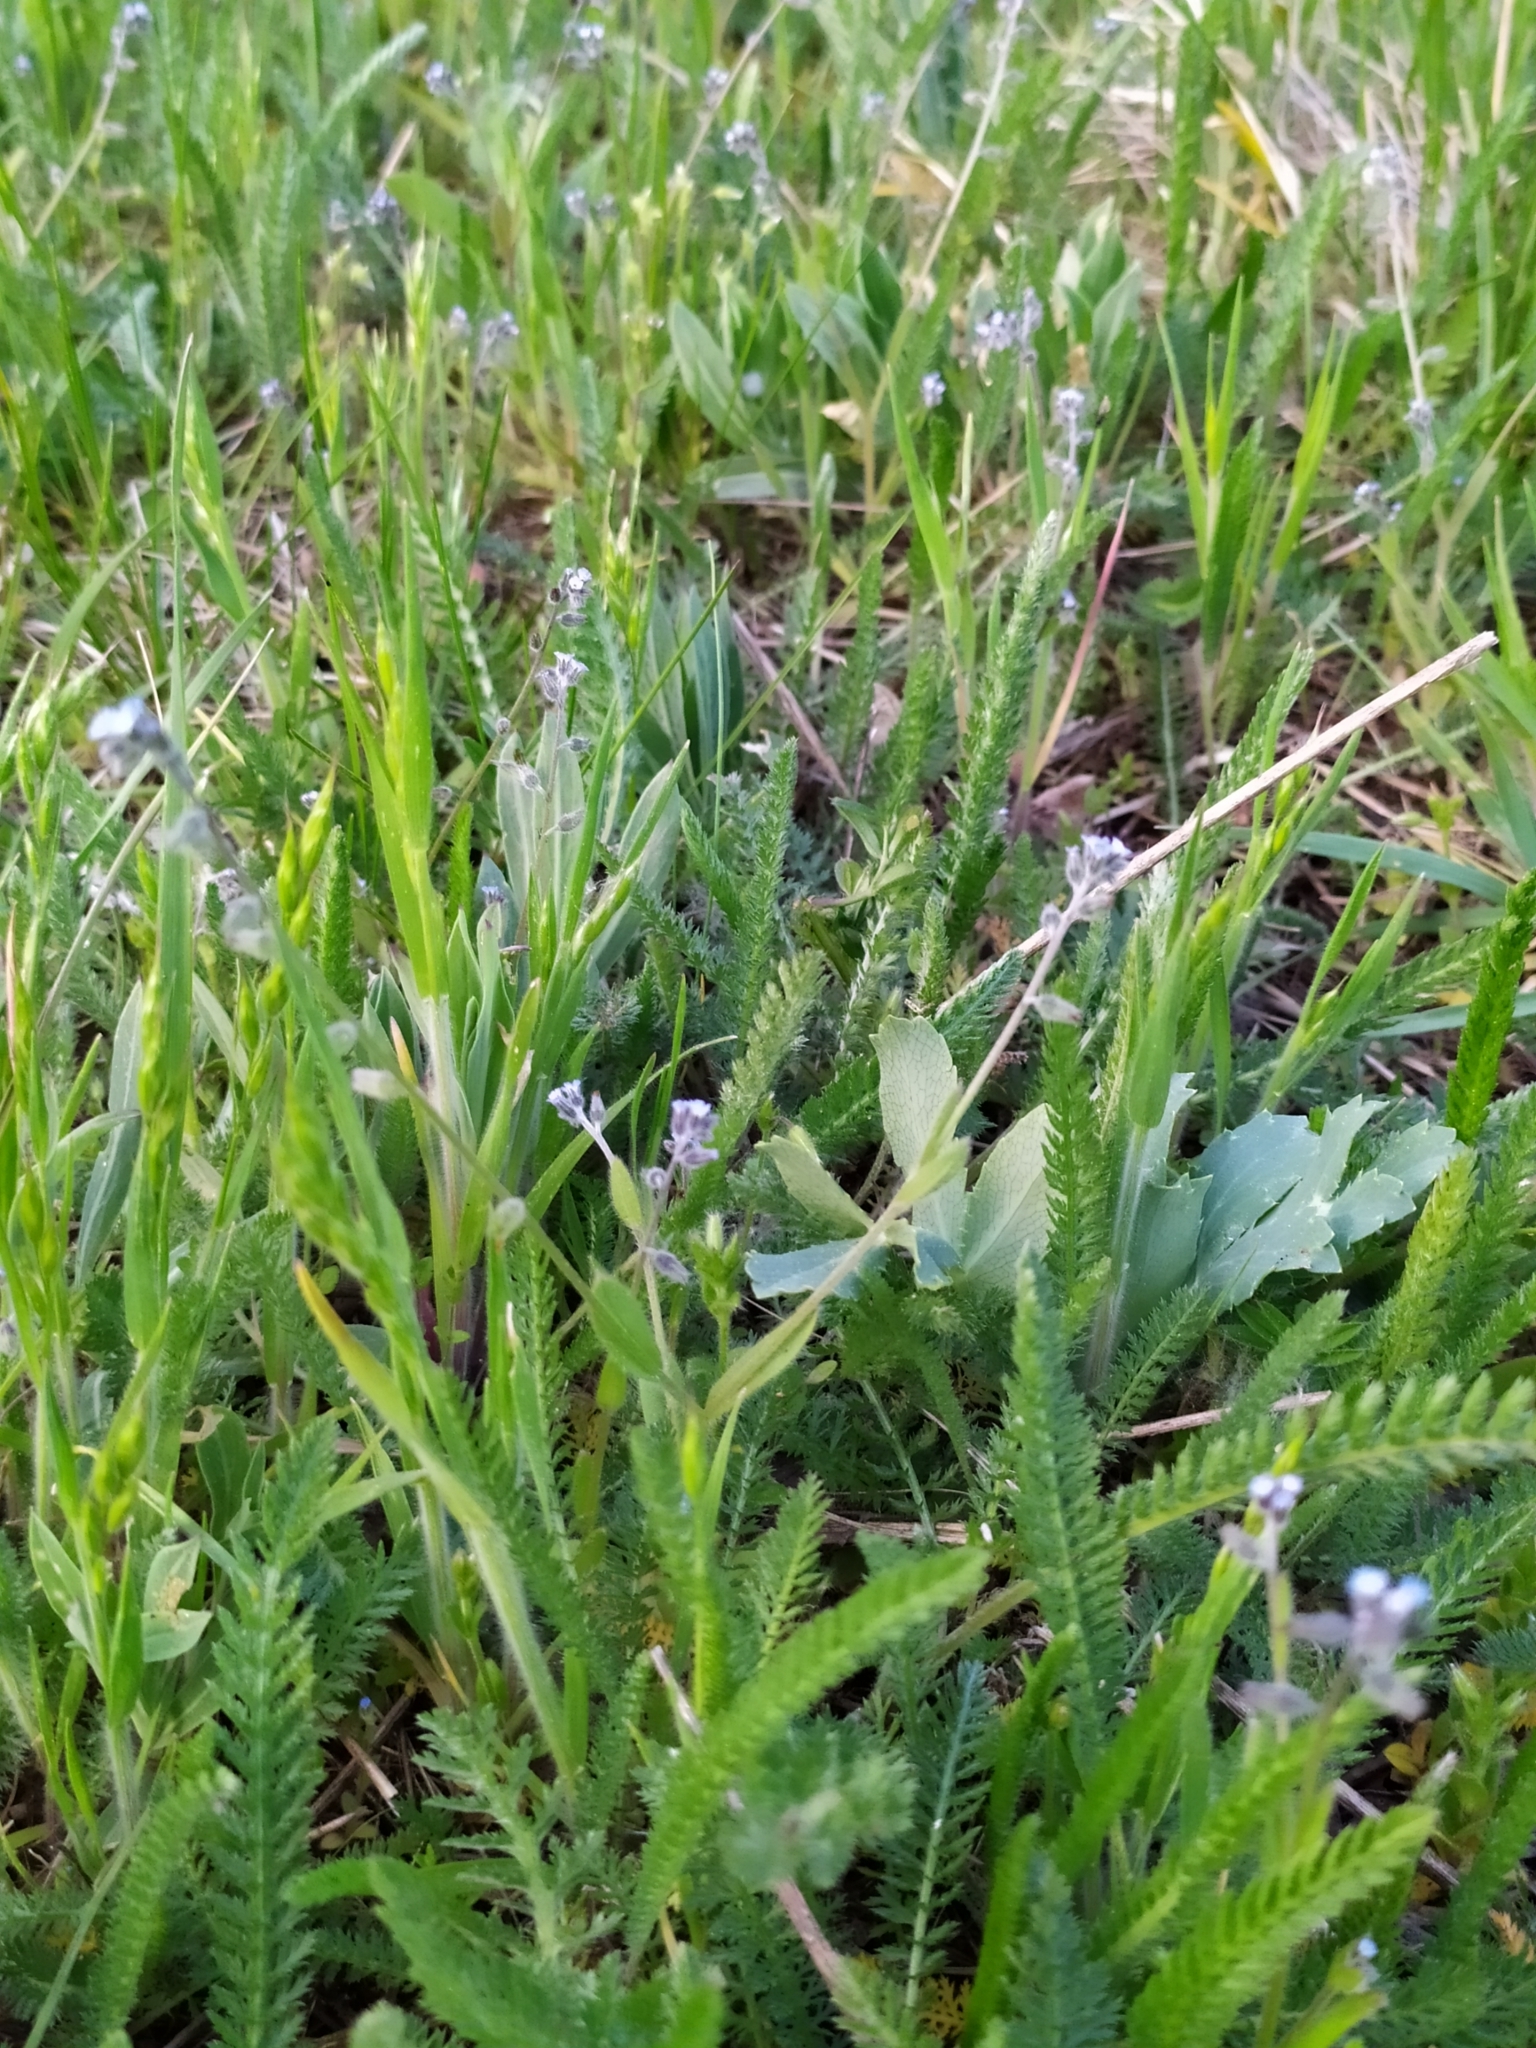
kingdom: Plantae
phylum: Tracheophyta
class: Magnoliopsida
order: Boraginales
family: Boraginaceae
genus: Myosotis
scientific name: Myosotis ramosissima
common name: Early forget-me-not
